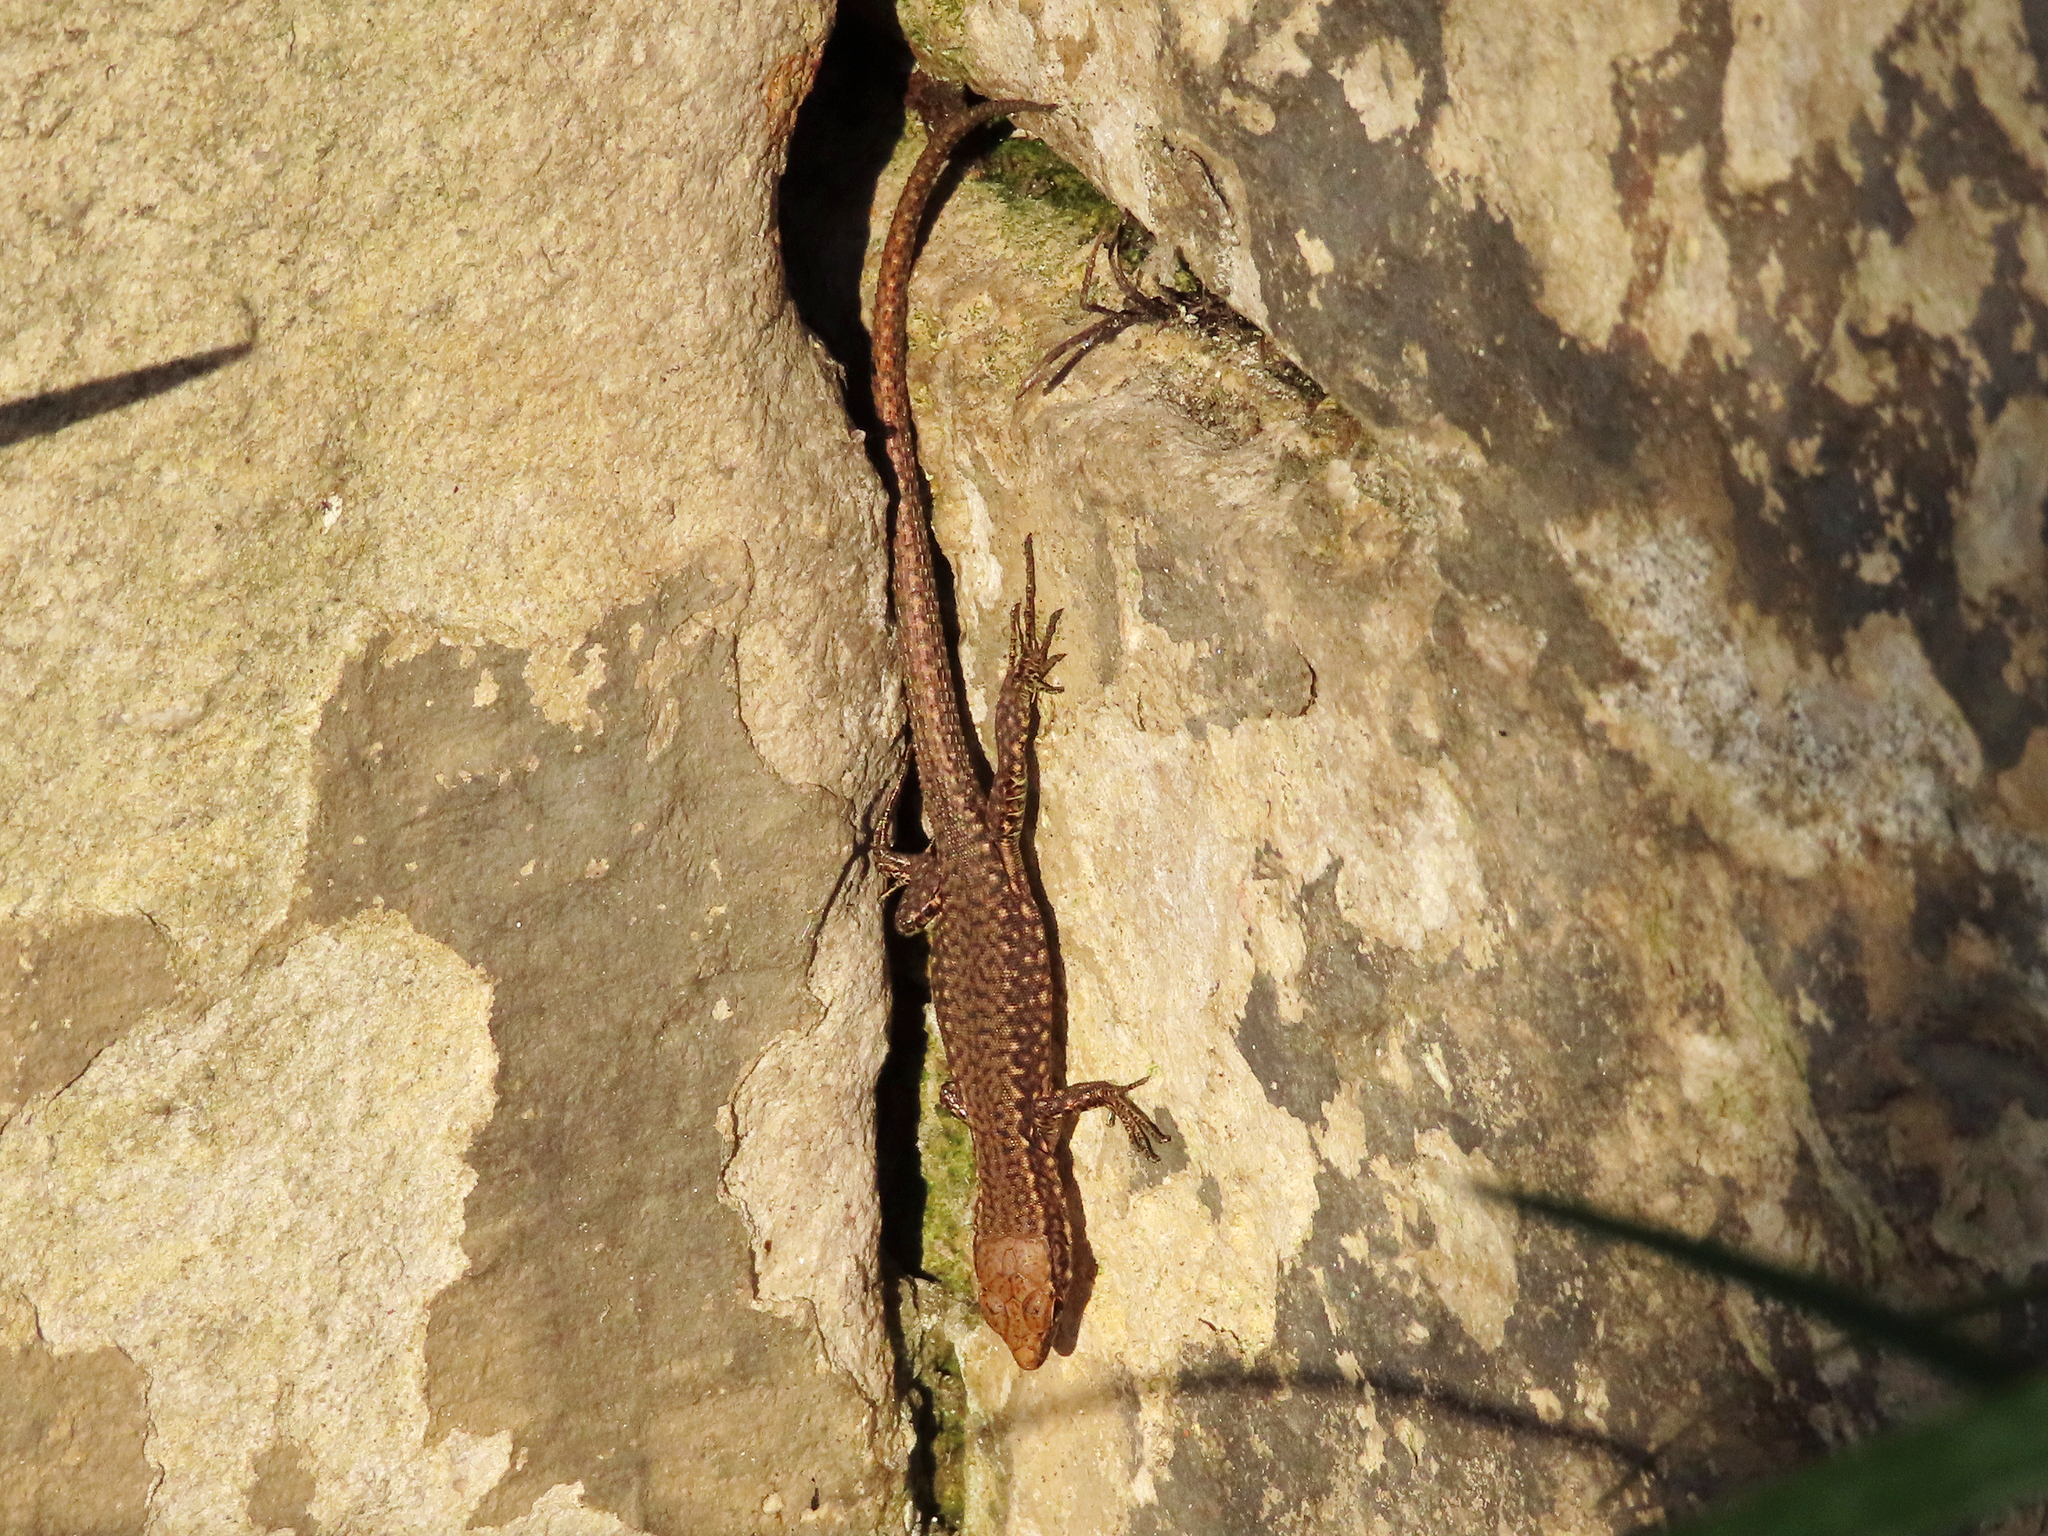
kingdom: Animalia
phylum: Chordata
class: Squamata
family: Lacertidae
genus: Darevskia
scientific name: Darevskia rudis
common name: Spiny-tailed lizard
